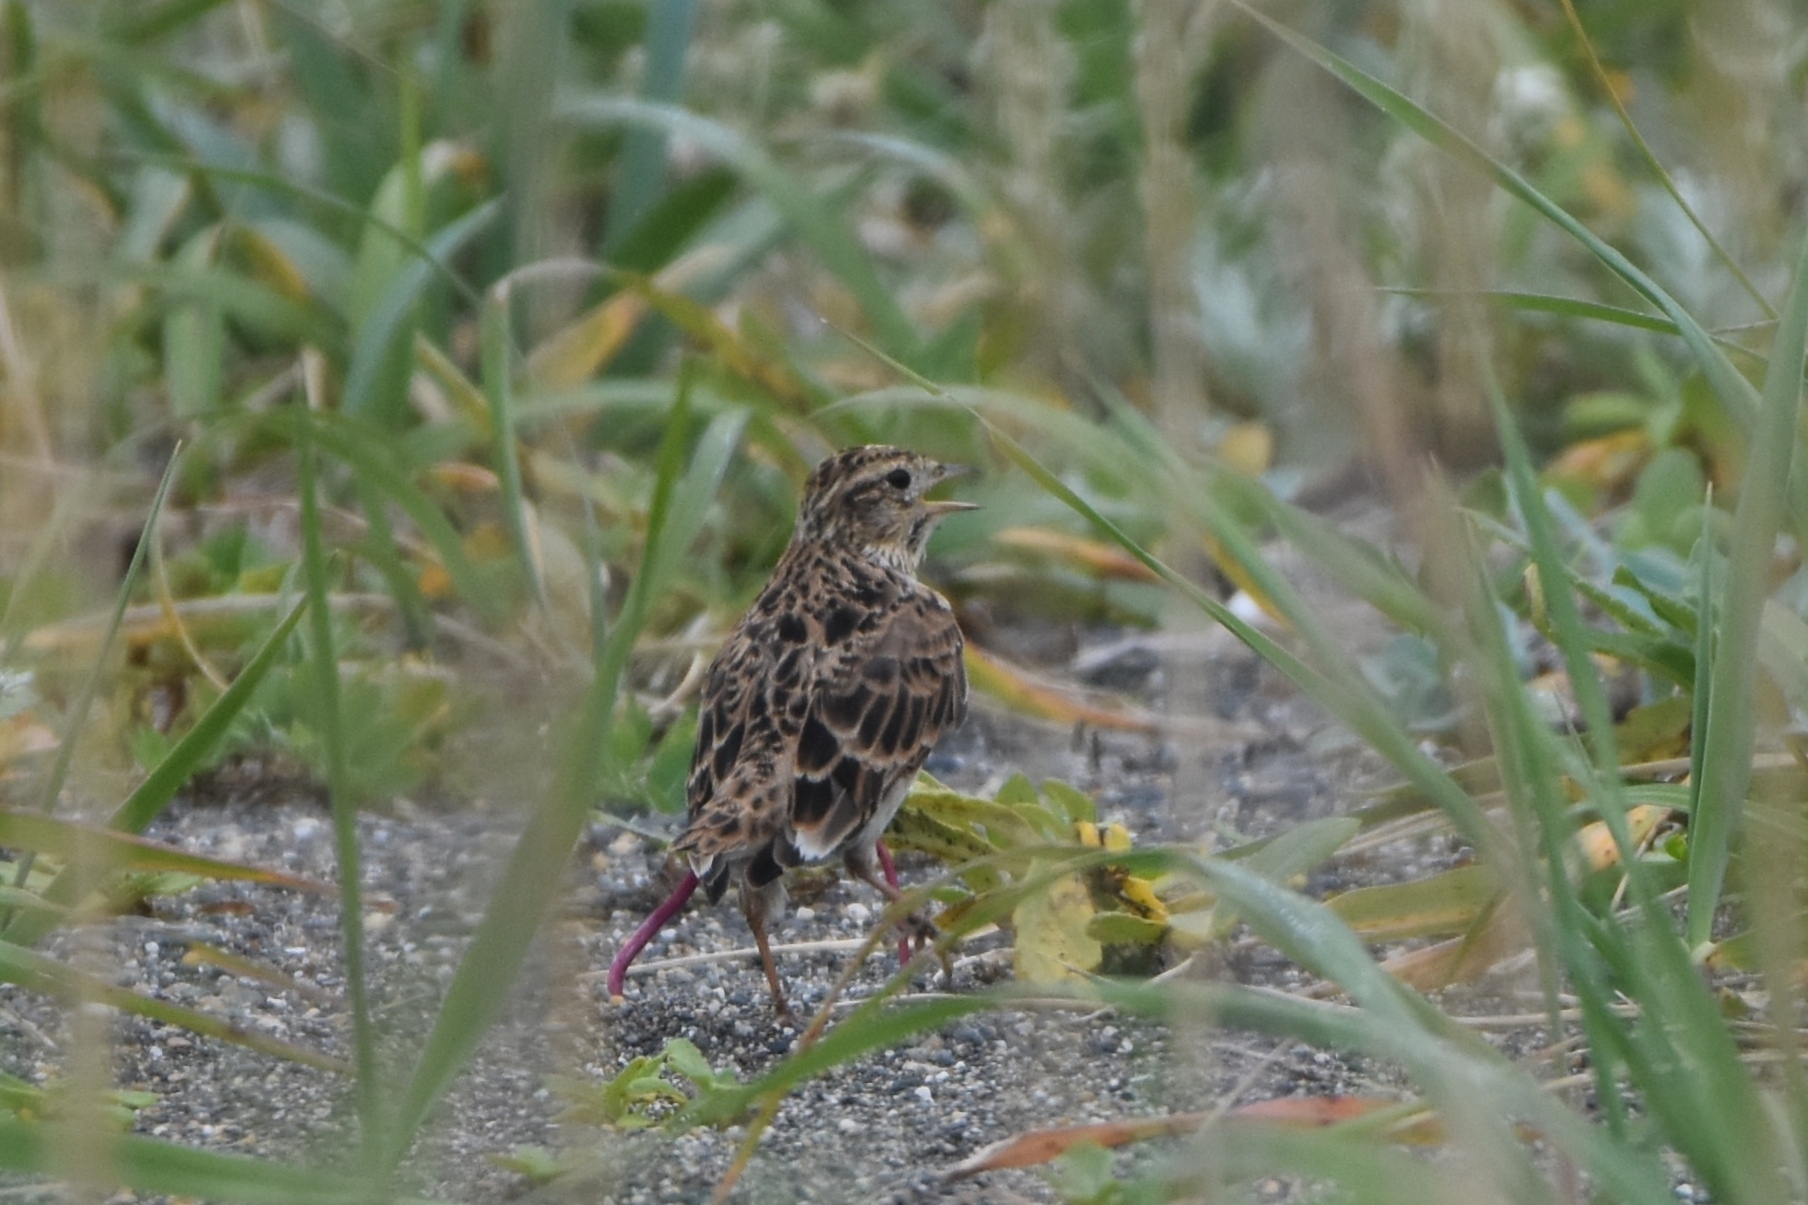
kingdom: Animalia
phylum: Chordata
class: Aves
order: Passeriformes
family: Alaudidae
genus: Alauda
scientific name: Alauda arvensis
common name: Eurasian skylark
